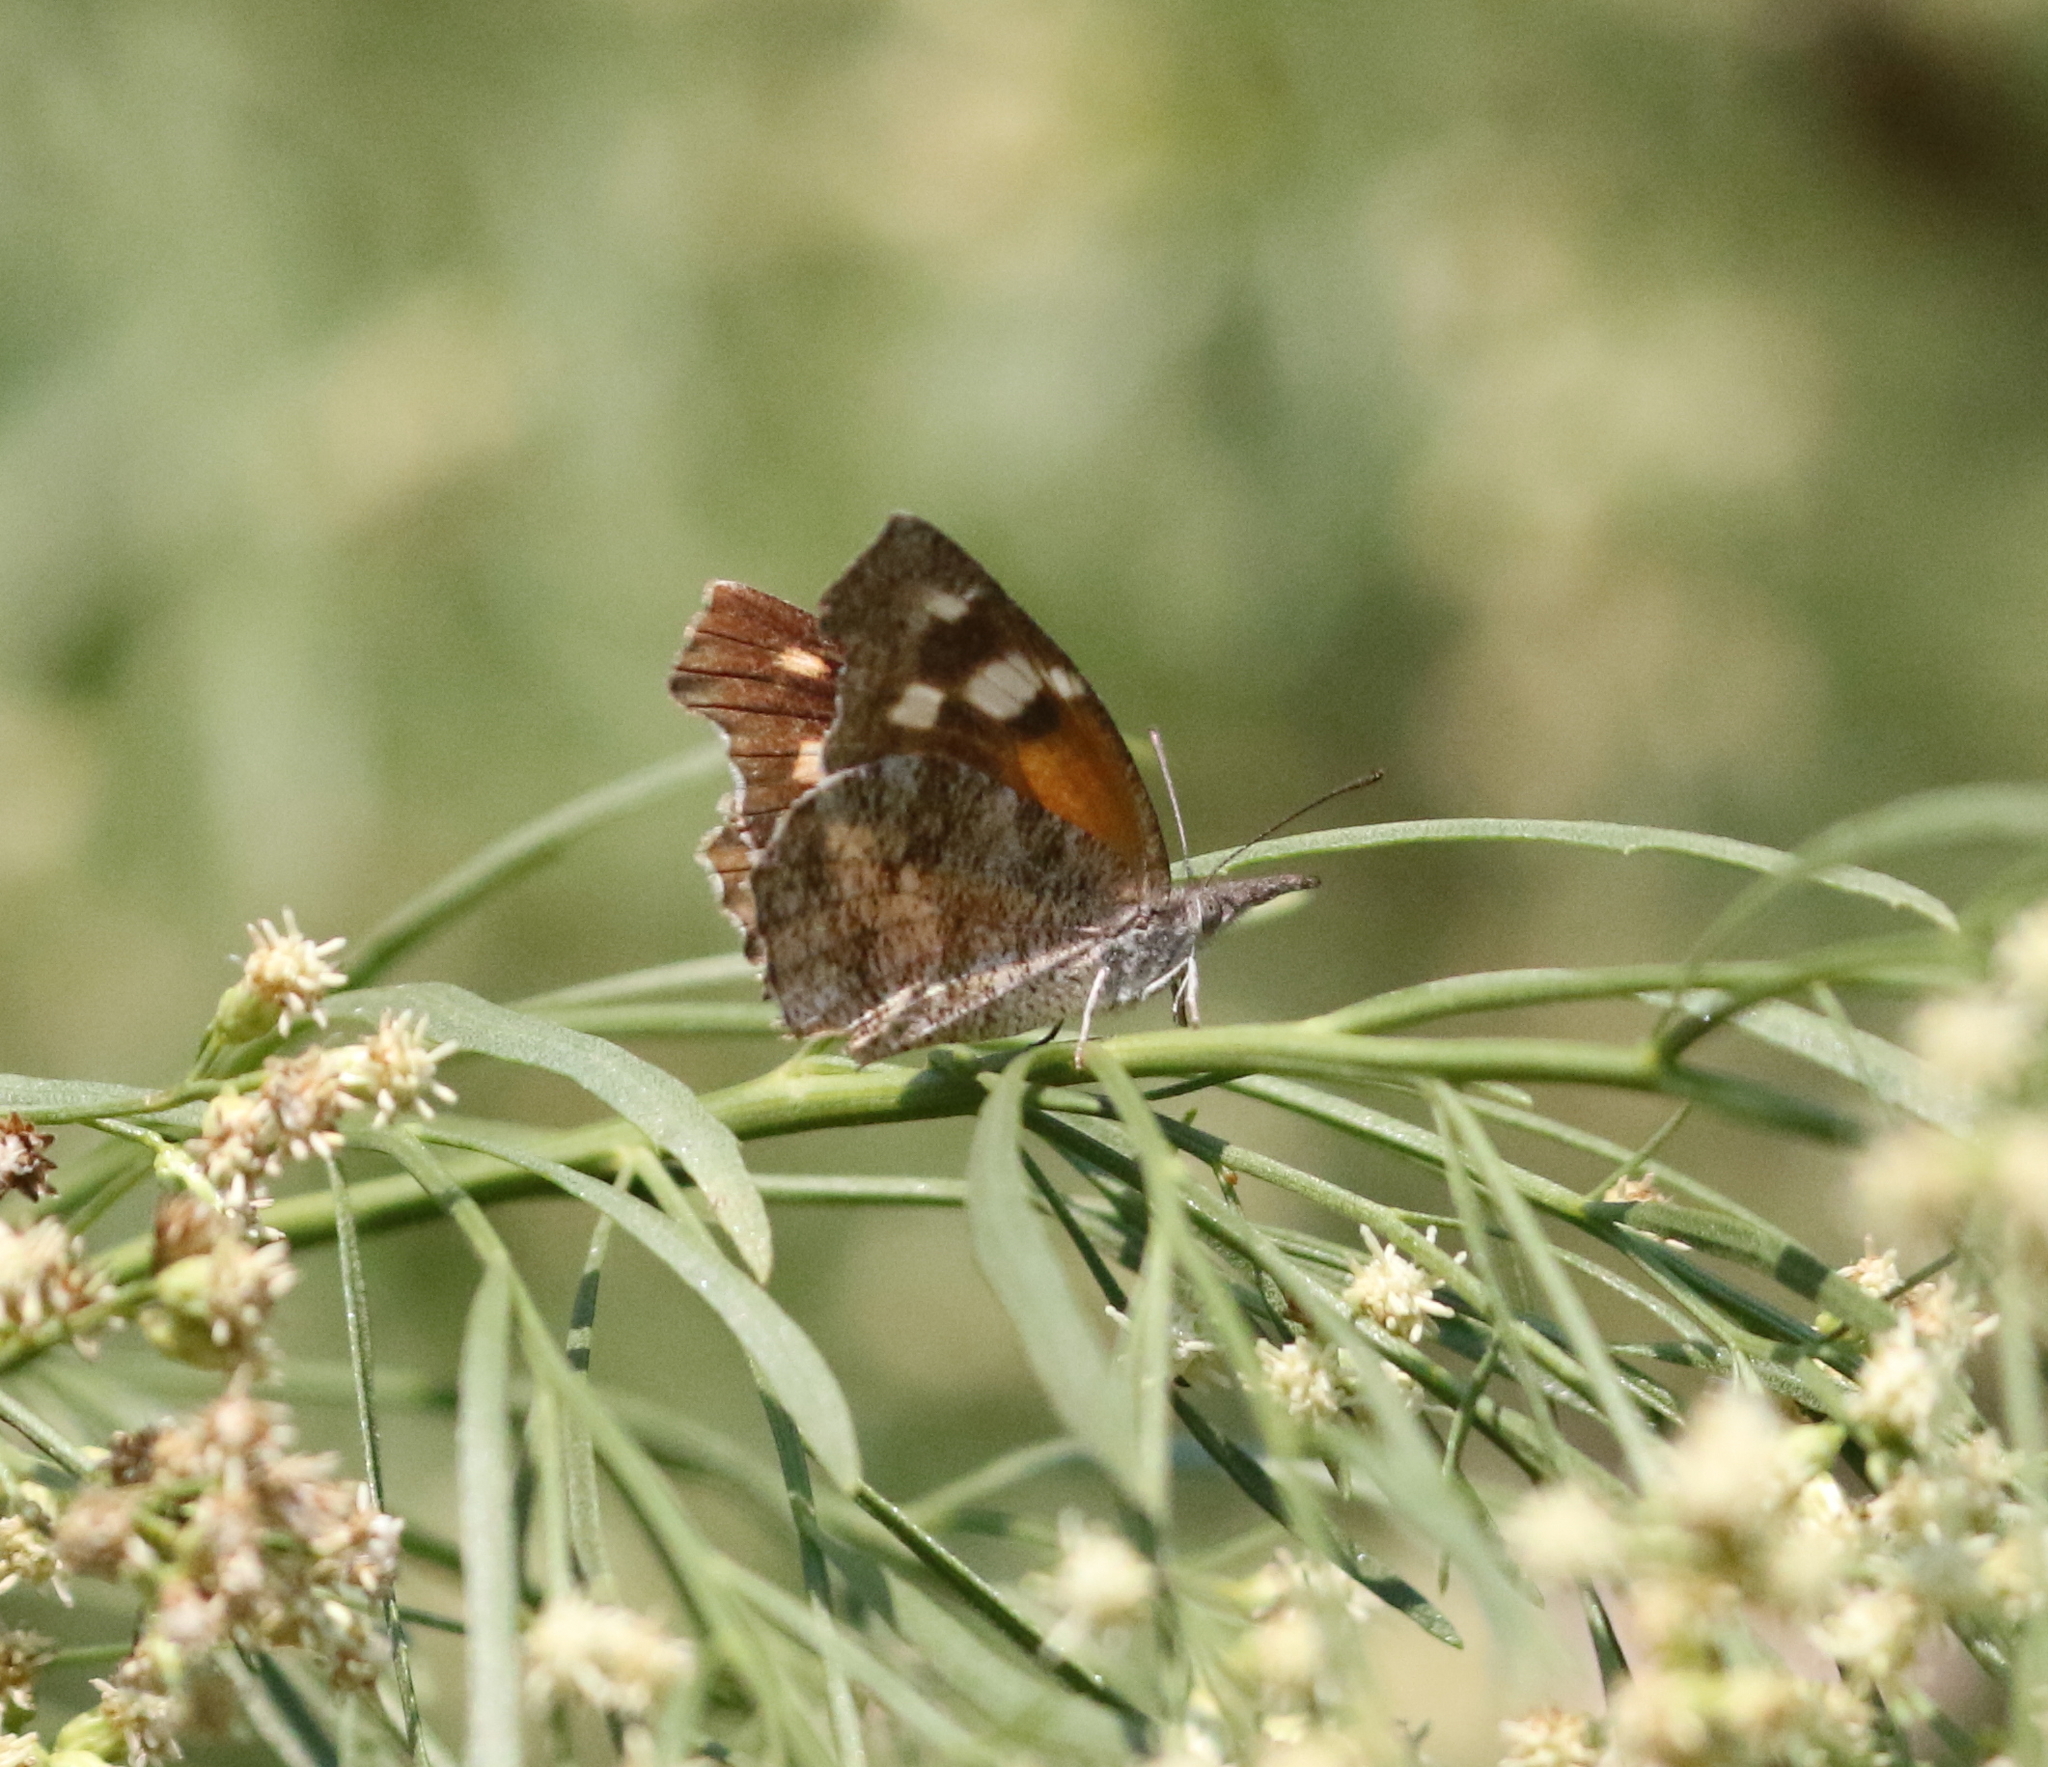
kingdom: Animalia
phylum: Arthropoda
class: Insecta
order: Lepidoptera
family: Nymphalidae
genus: Libytheana
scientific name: Libytheana carinenta
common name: American snout
